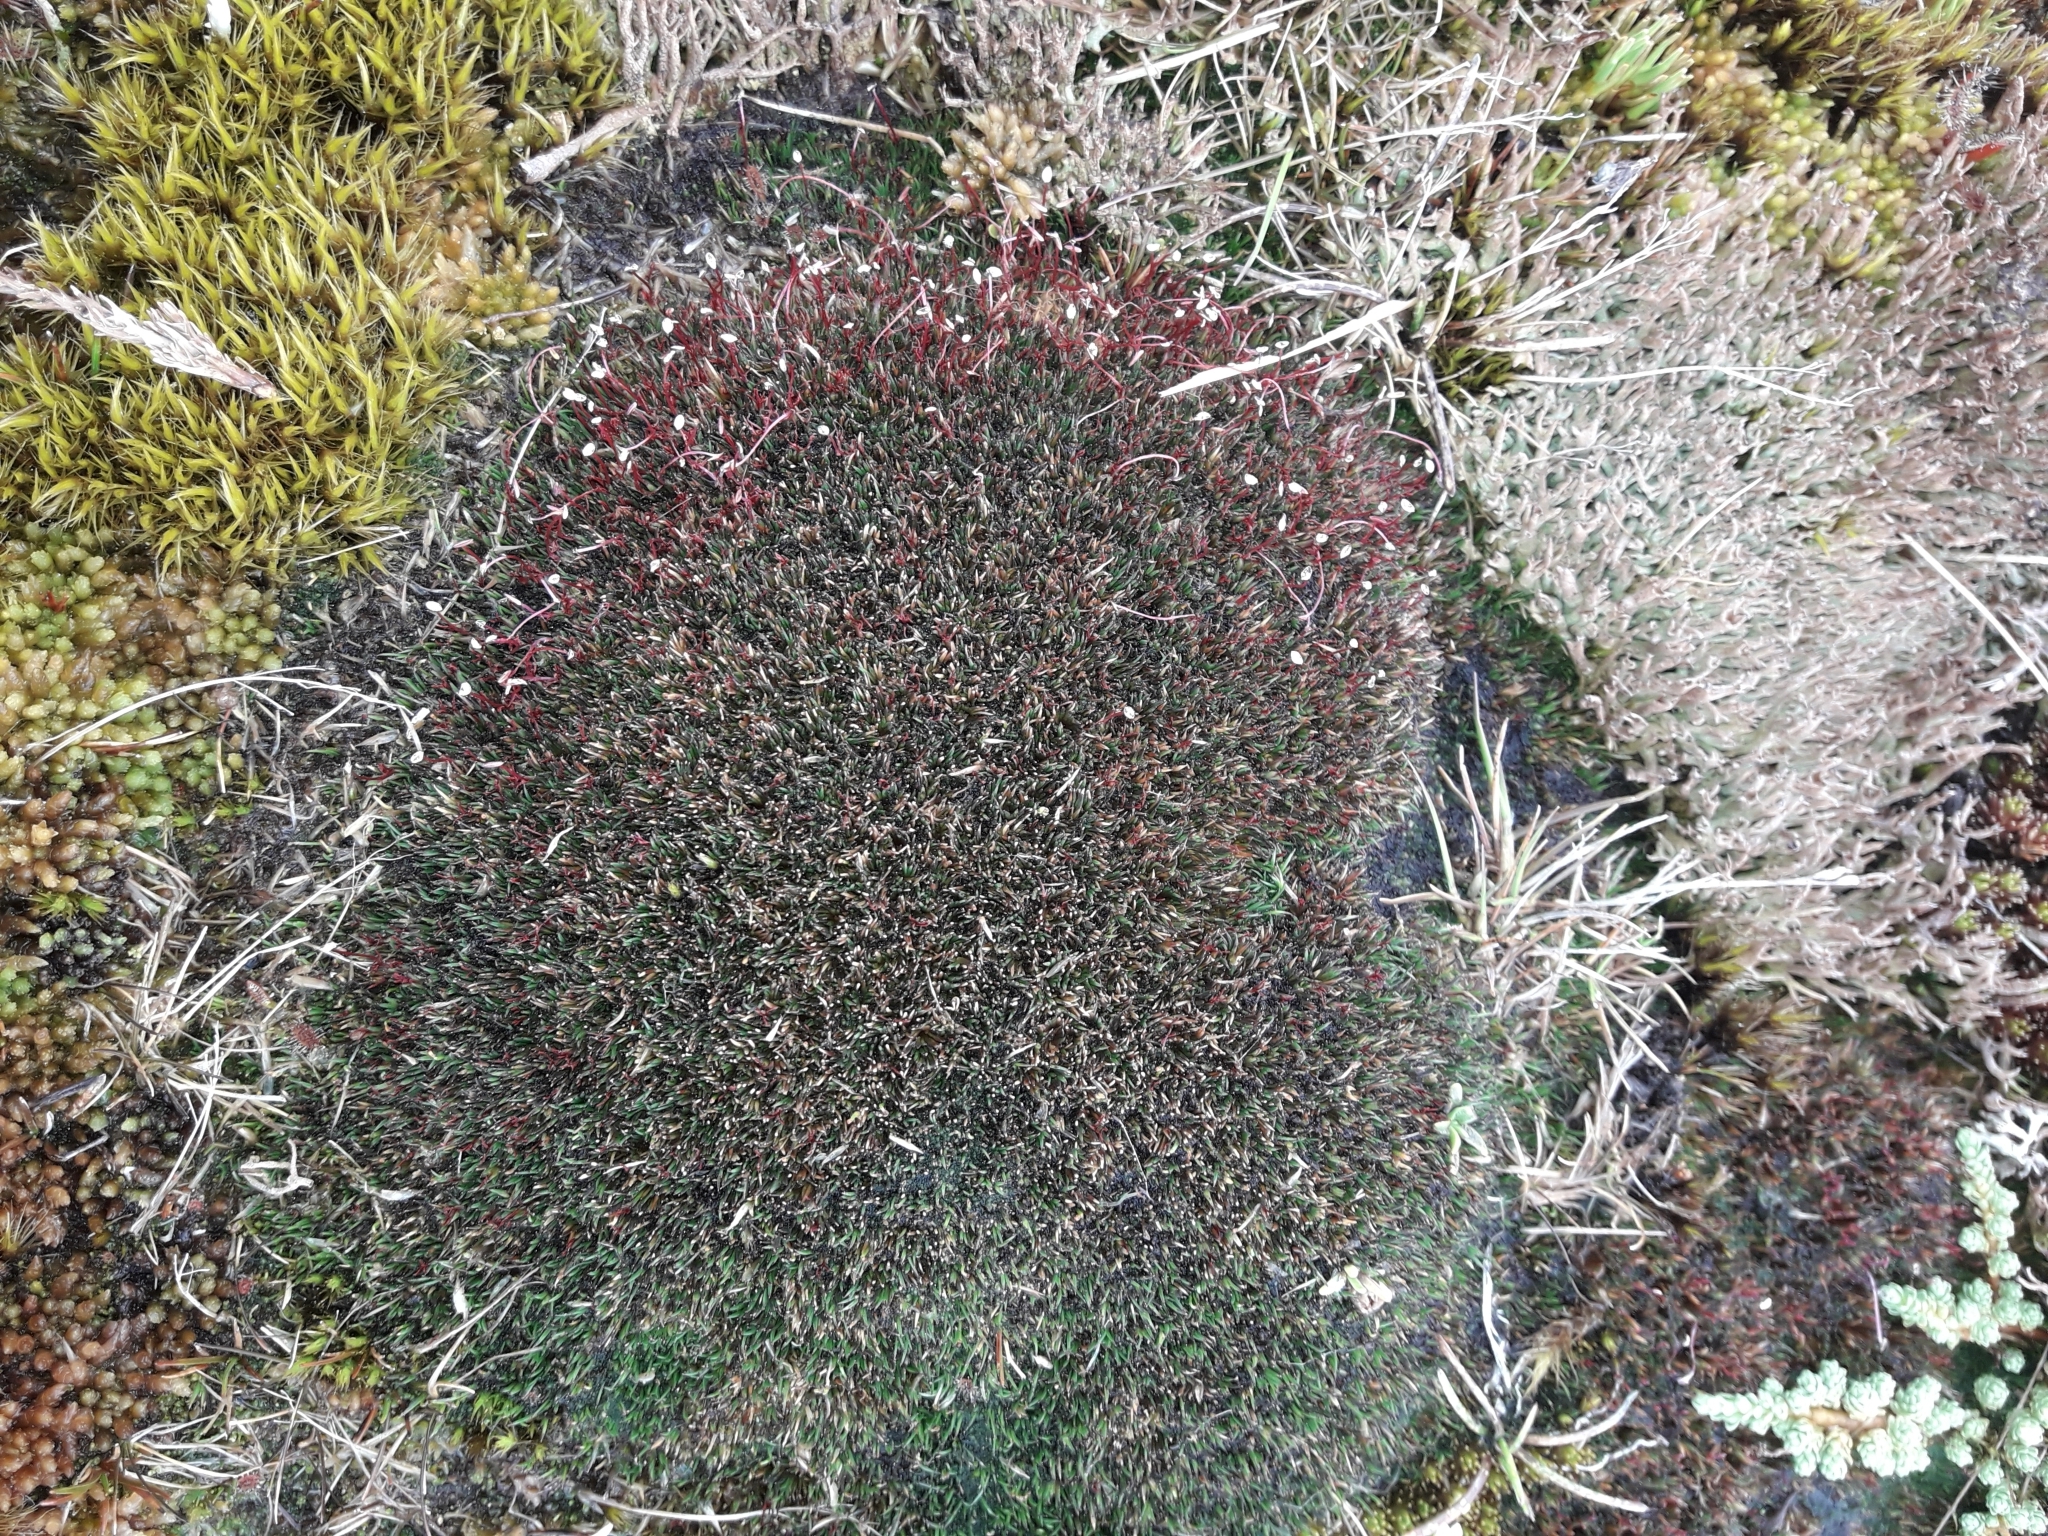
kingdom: Plantae
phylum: Tracheophyta
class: Liliopsida
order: Poales
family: Restionaceae
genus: Centrolepis
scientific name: Centrolepis pallida
